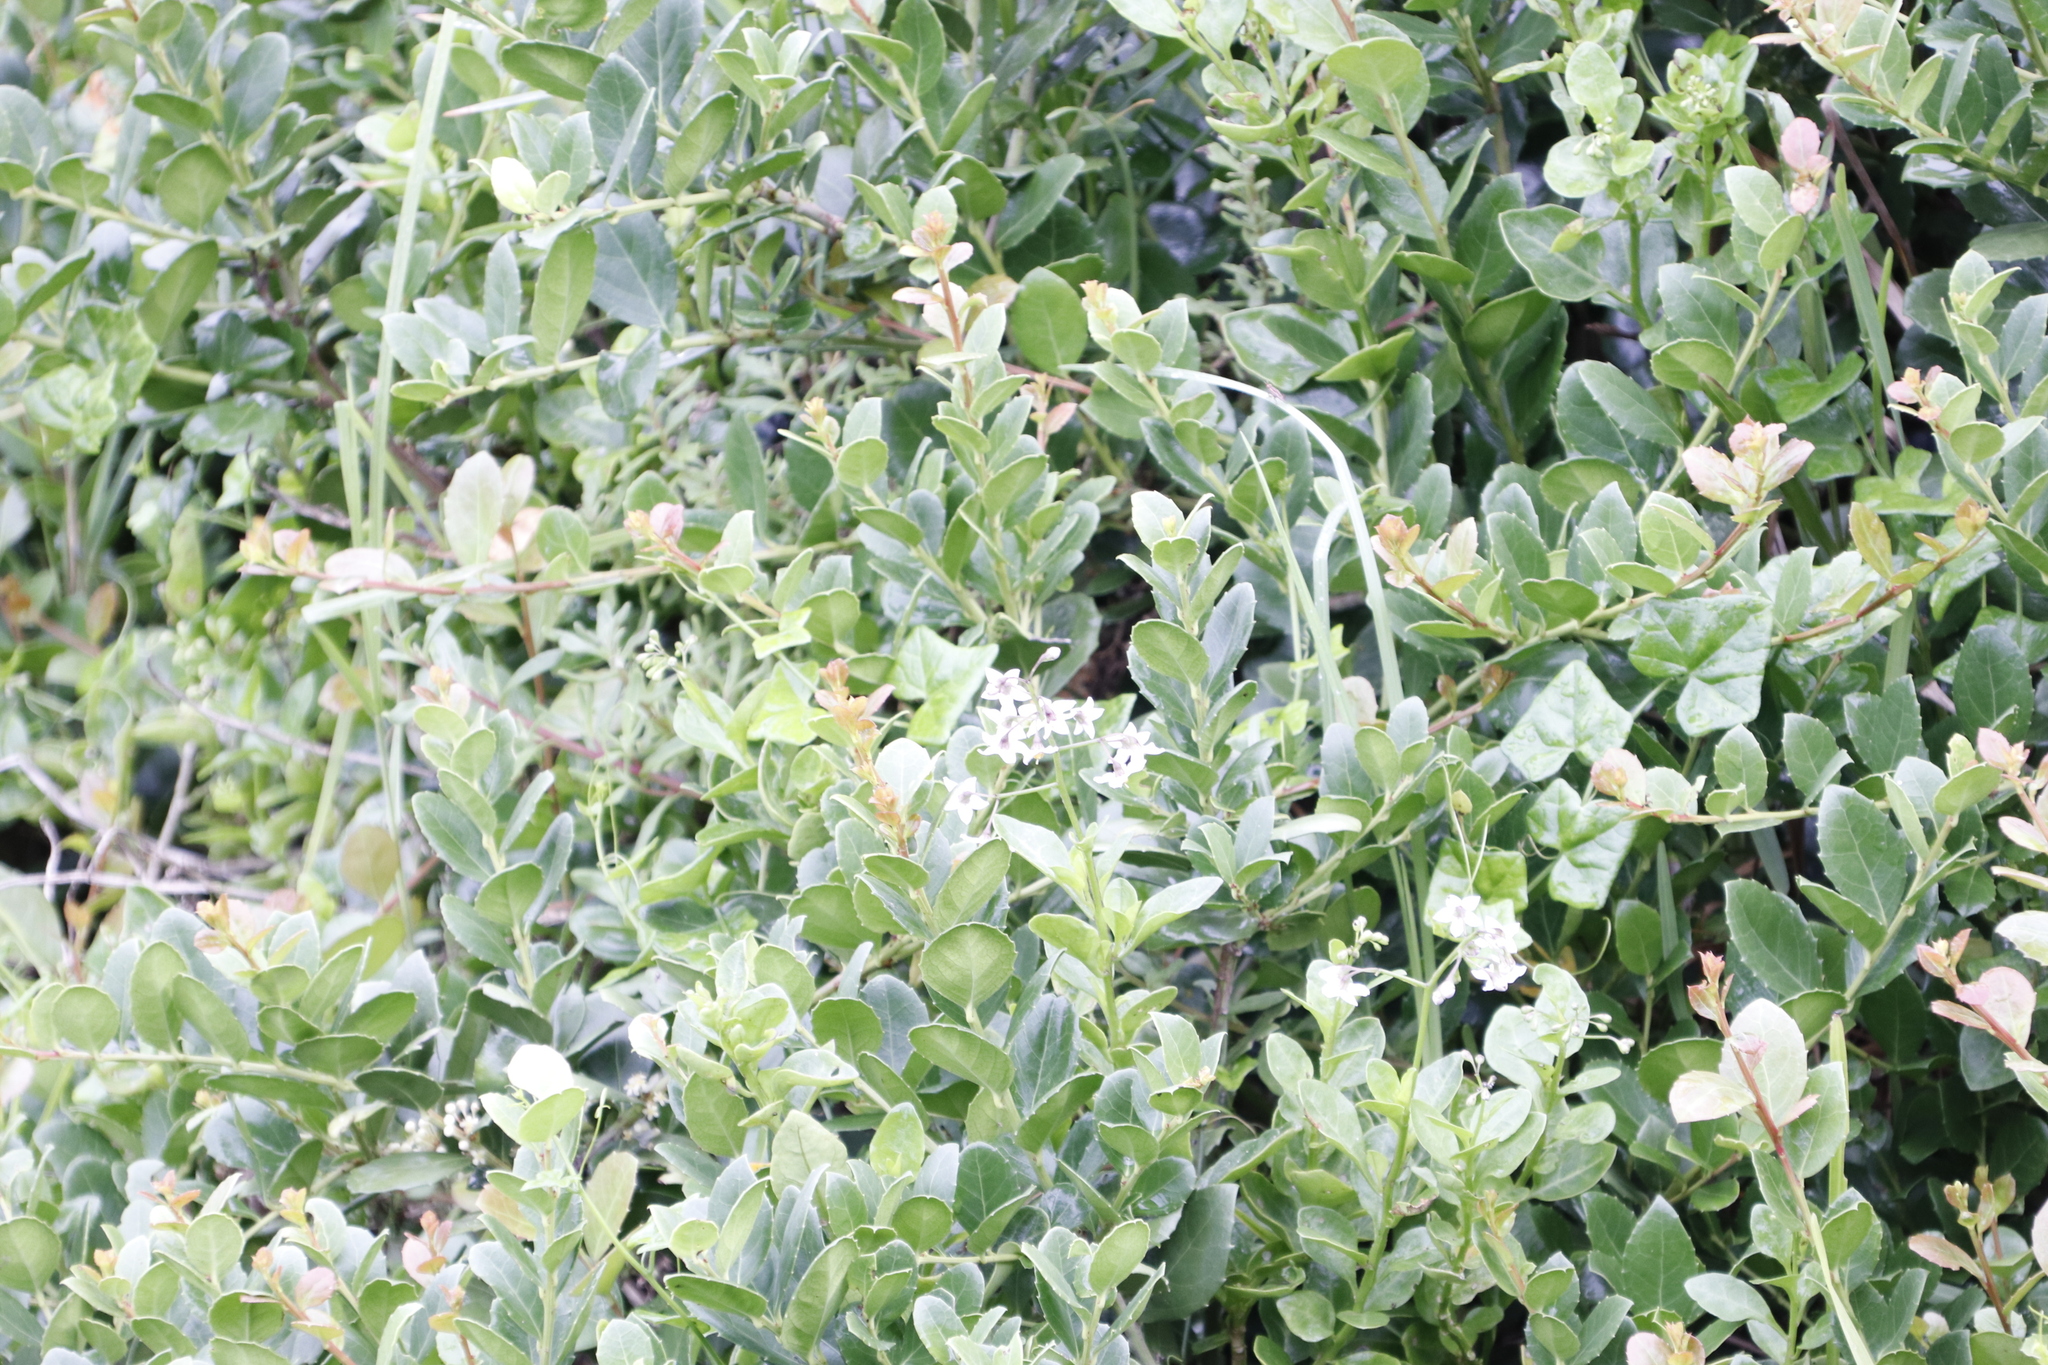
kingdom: Plantae
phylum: Tracheophyta
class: Magnoliopsida
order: Solanales
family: Solanaceae
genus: Solanum
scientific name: Solanum africanum
